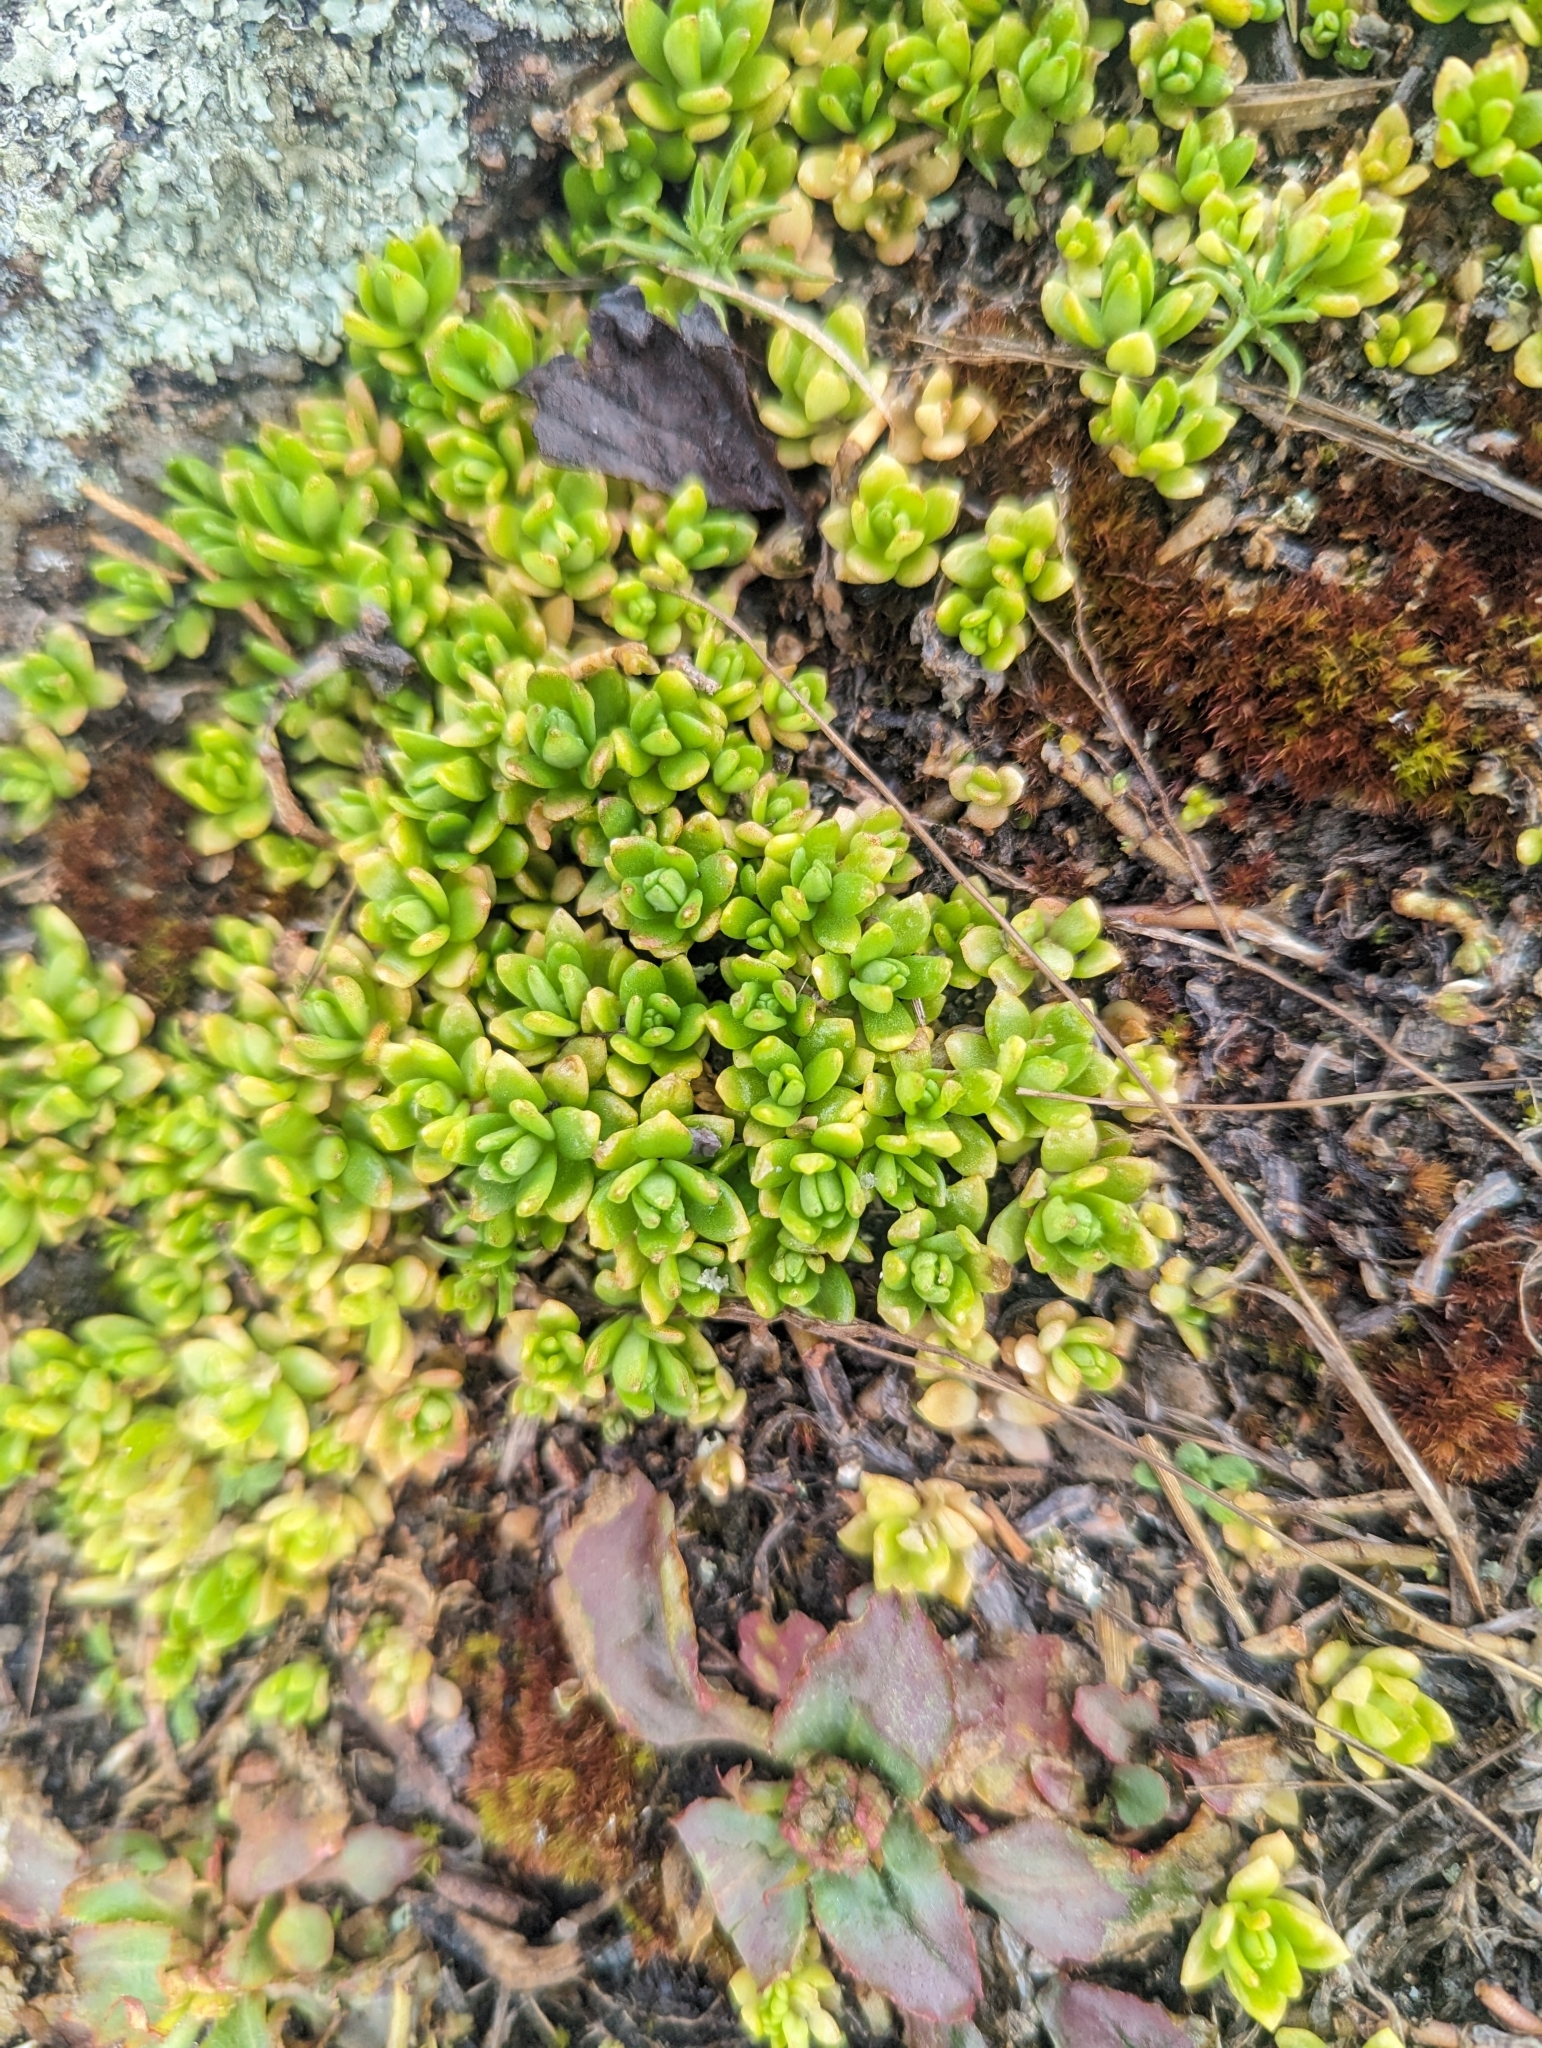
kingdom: Plantae
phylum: Tracheophyta
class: Magnoliopsida
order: Saxifragales
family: Crassulaceae
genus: Sedum
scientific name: Sedum sarmentosum
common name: Stringy stonecrop
